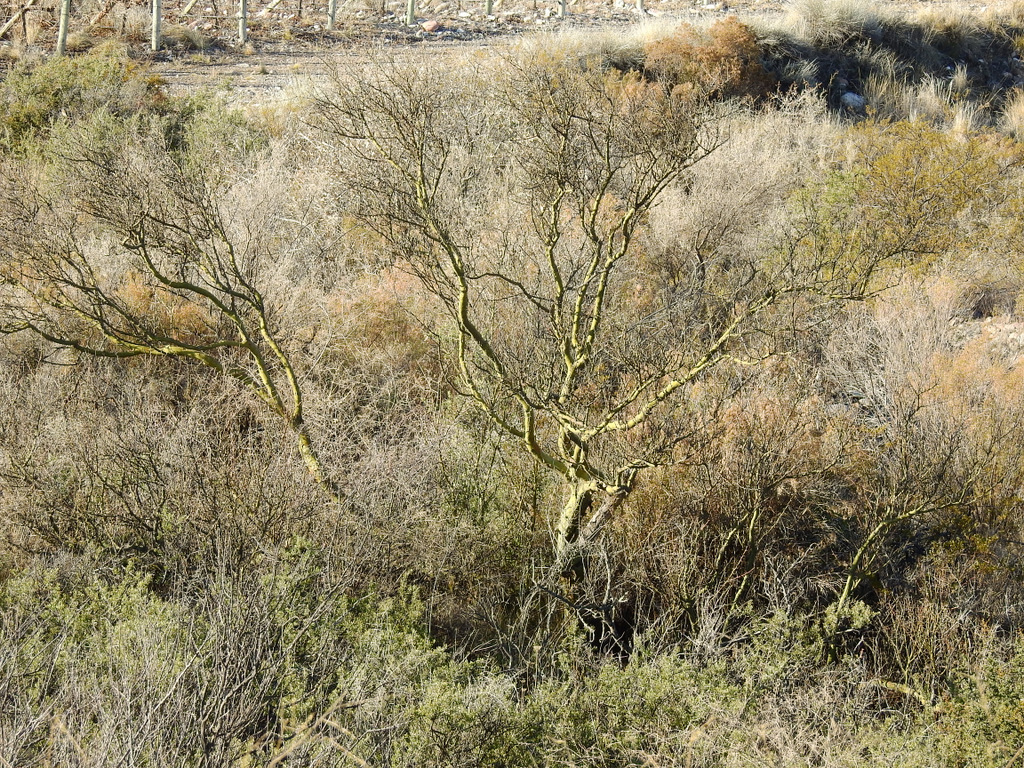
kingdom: Plantae
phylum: Tracheophyta
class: Magnoliopsida
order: Fabales
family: Fabaceae
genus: Parkinsonia
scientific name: Parkinsonia praecox
